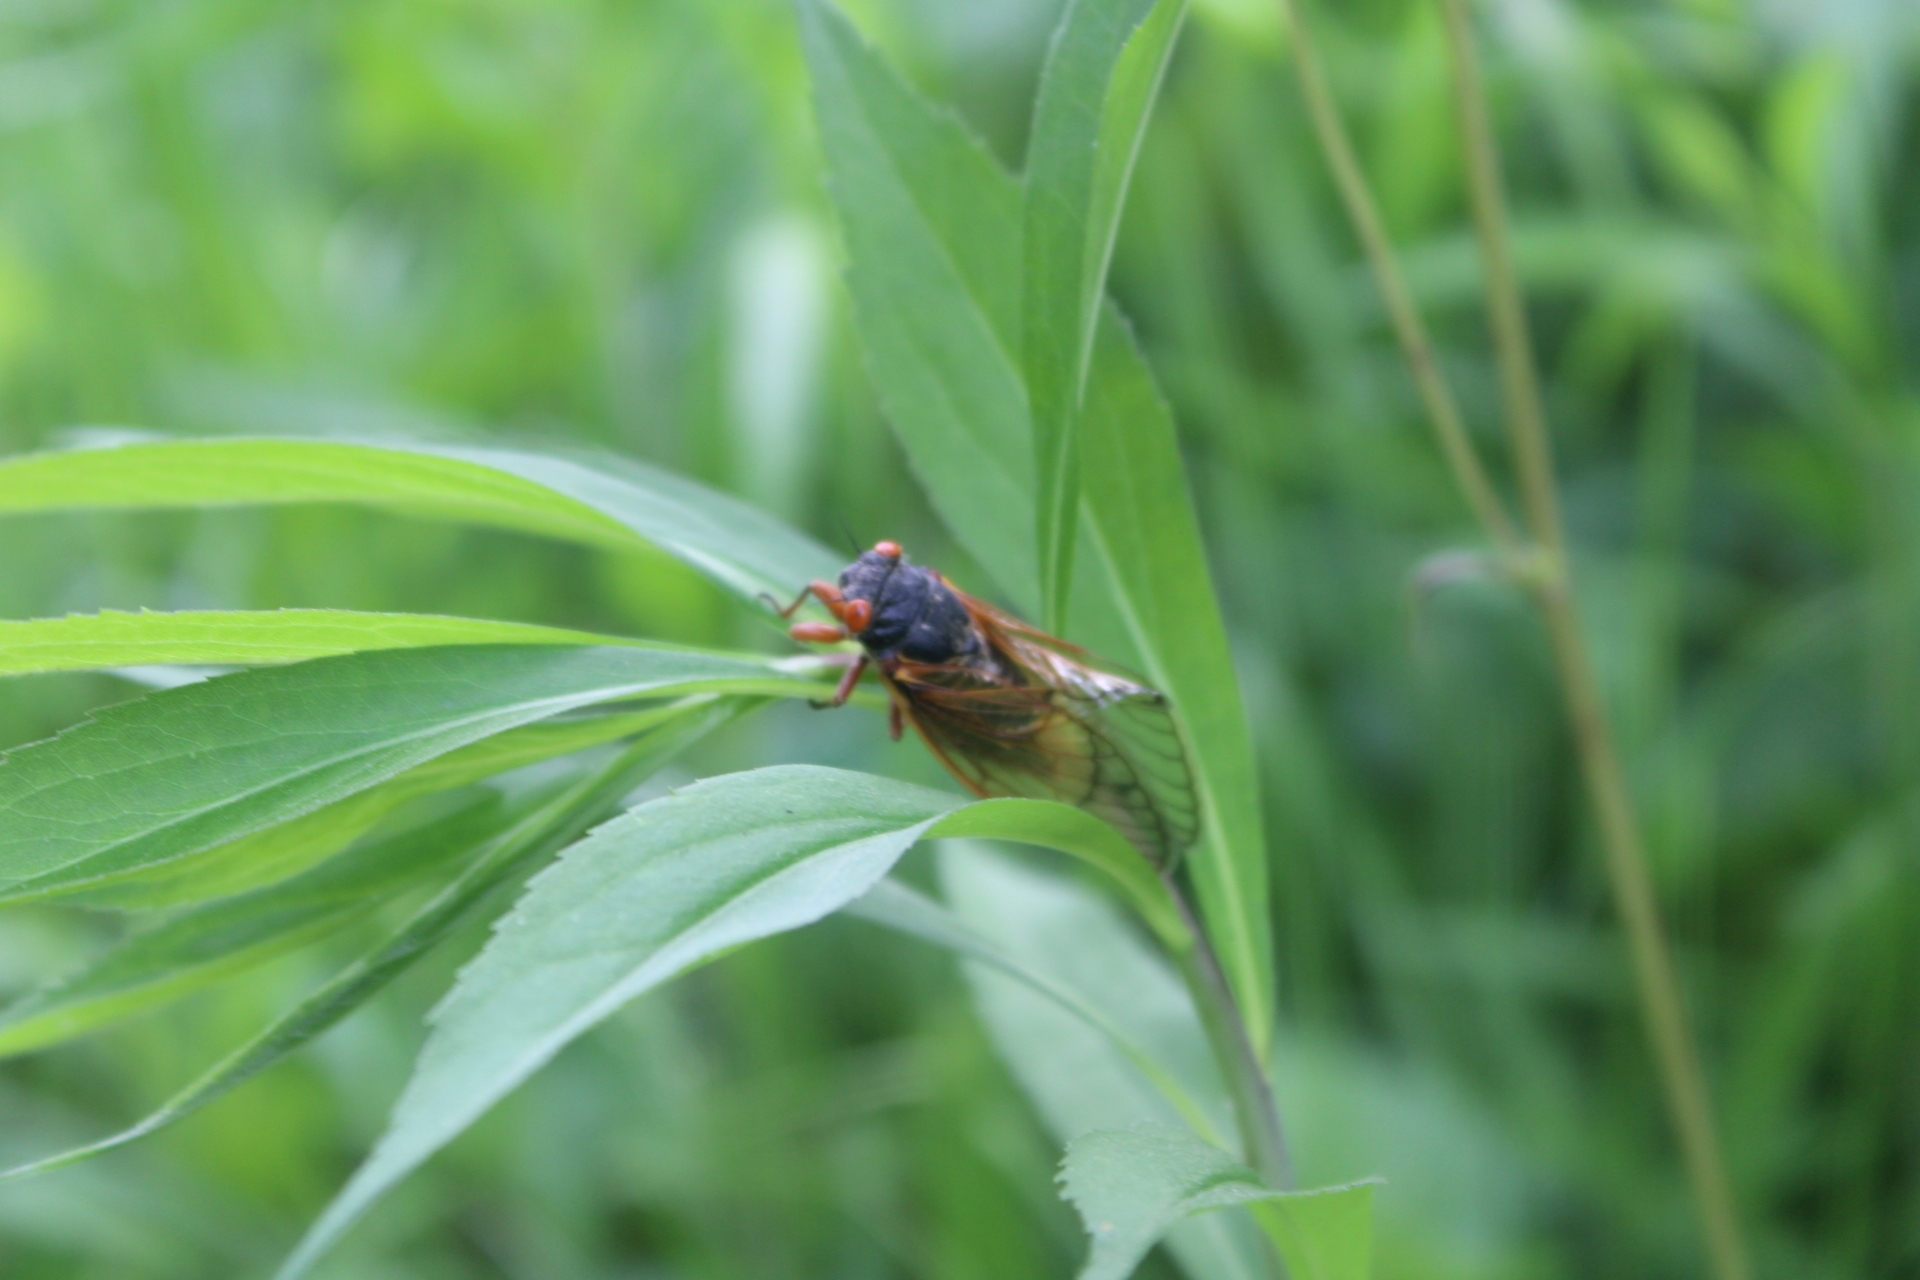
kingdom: Animalia
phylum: Arthropoda
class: Insecta
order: Hemiptera
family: Cicadidae
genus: Magicicada
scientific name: Magicicada
